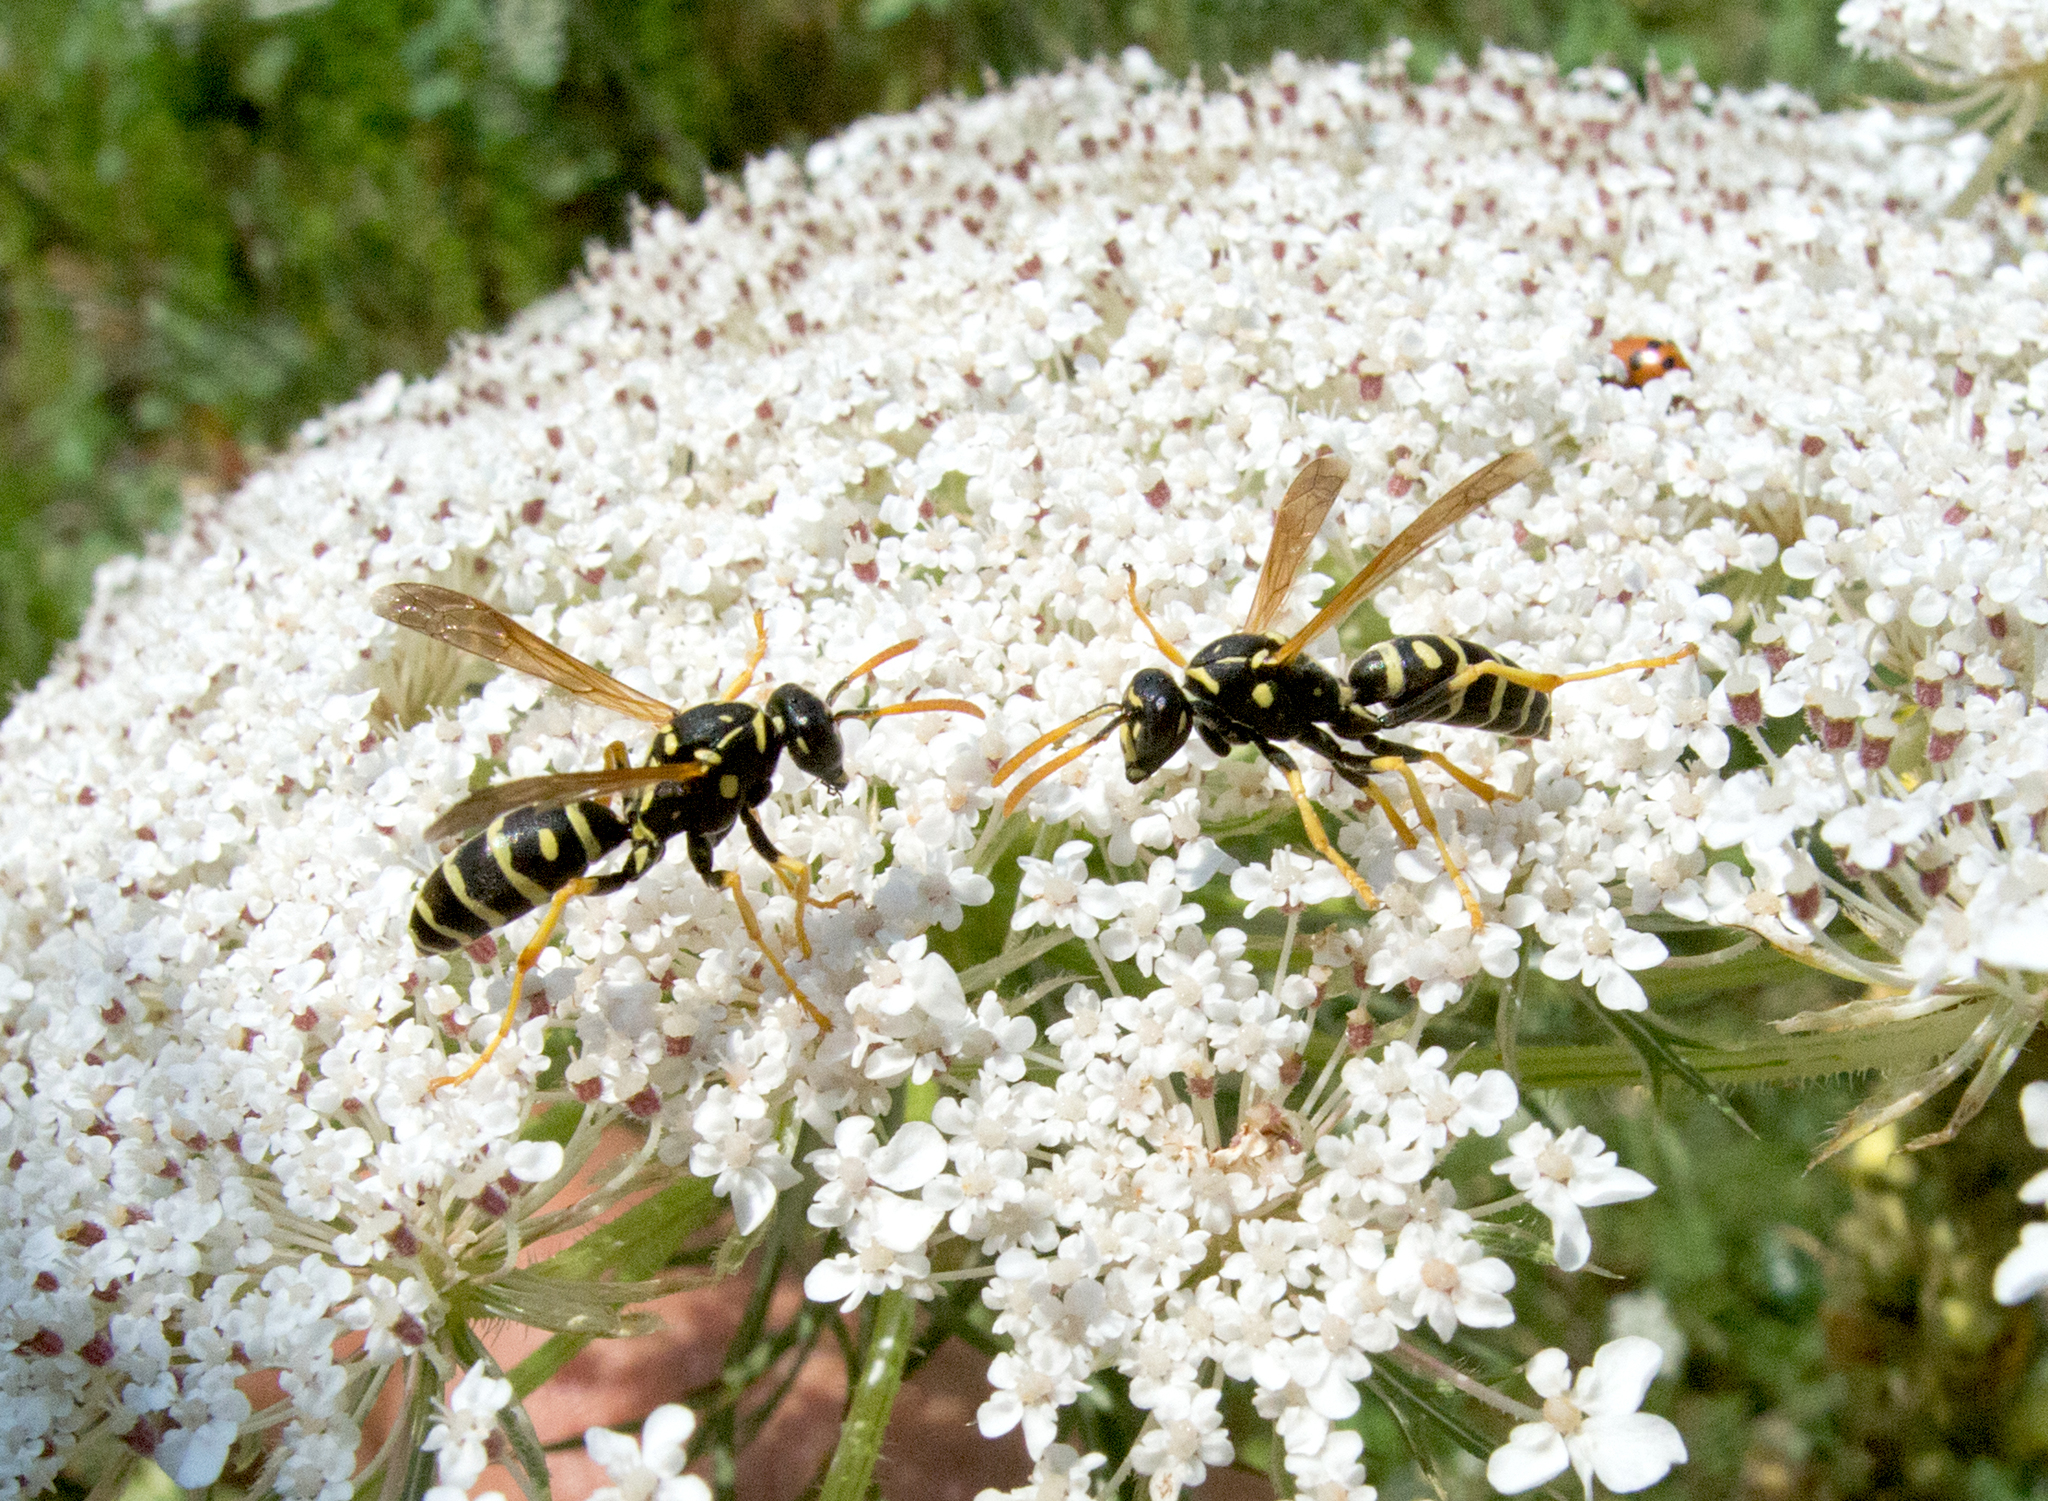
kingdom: Animalia
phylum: Arthropoda
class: Insecta
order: Hymenoptera
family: Eumenidae
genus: Polistes
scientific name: Polistes gallicus
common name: Paper wasp
